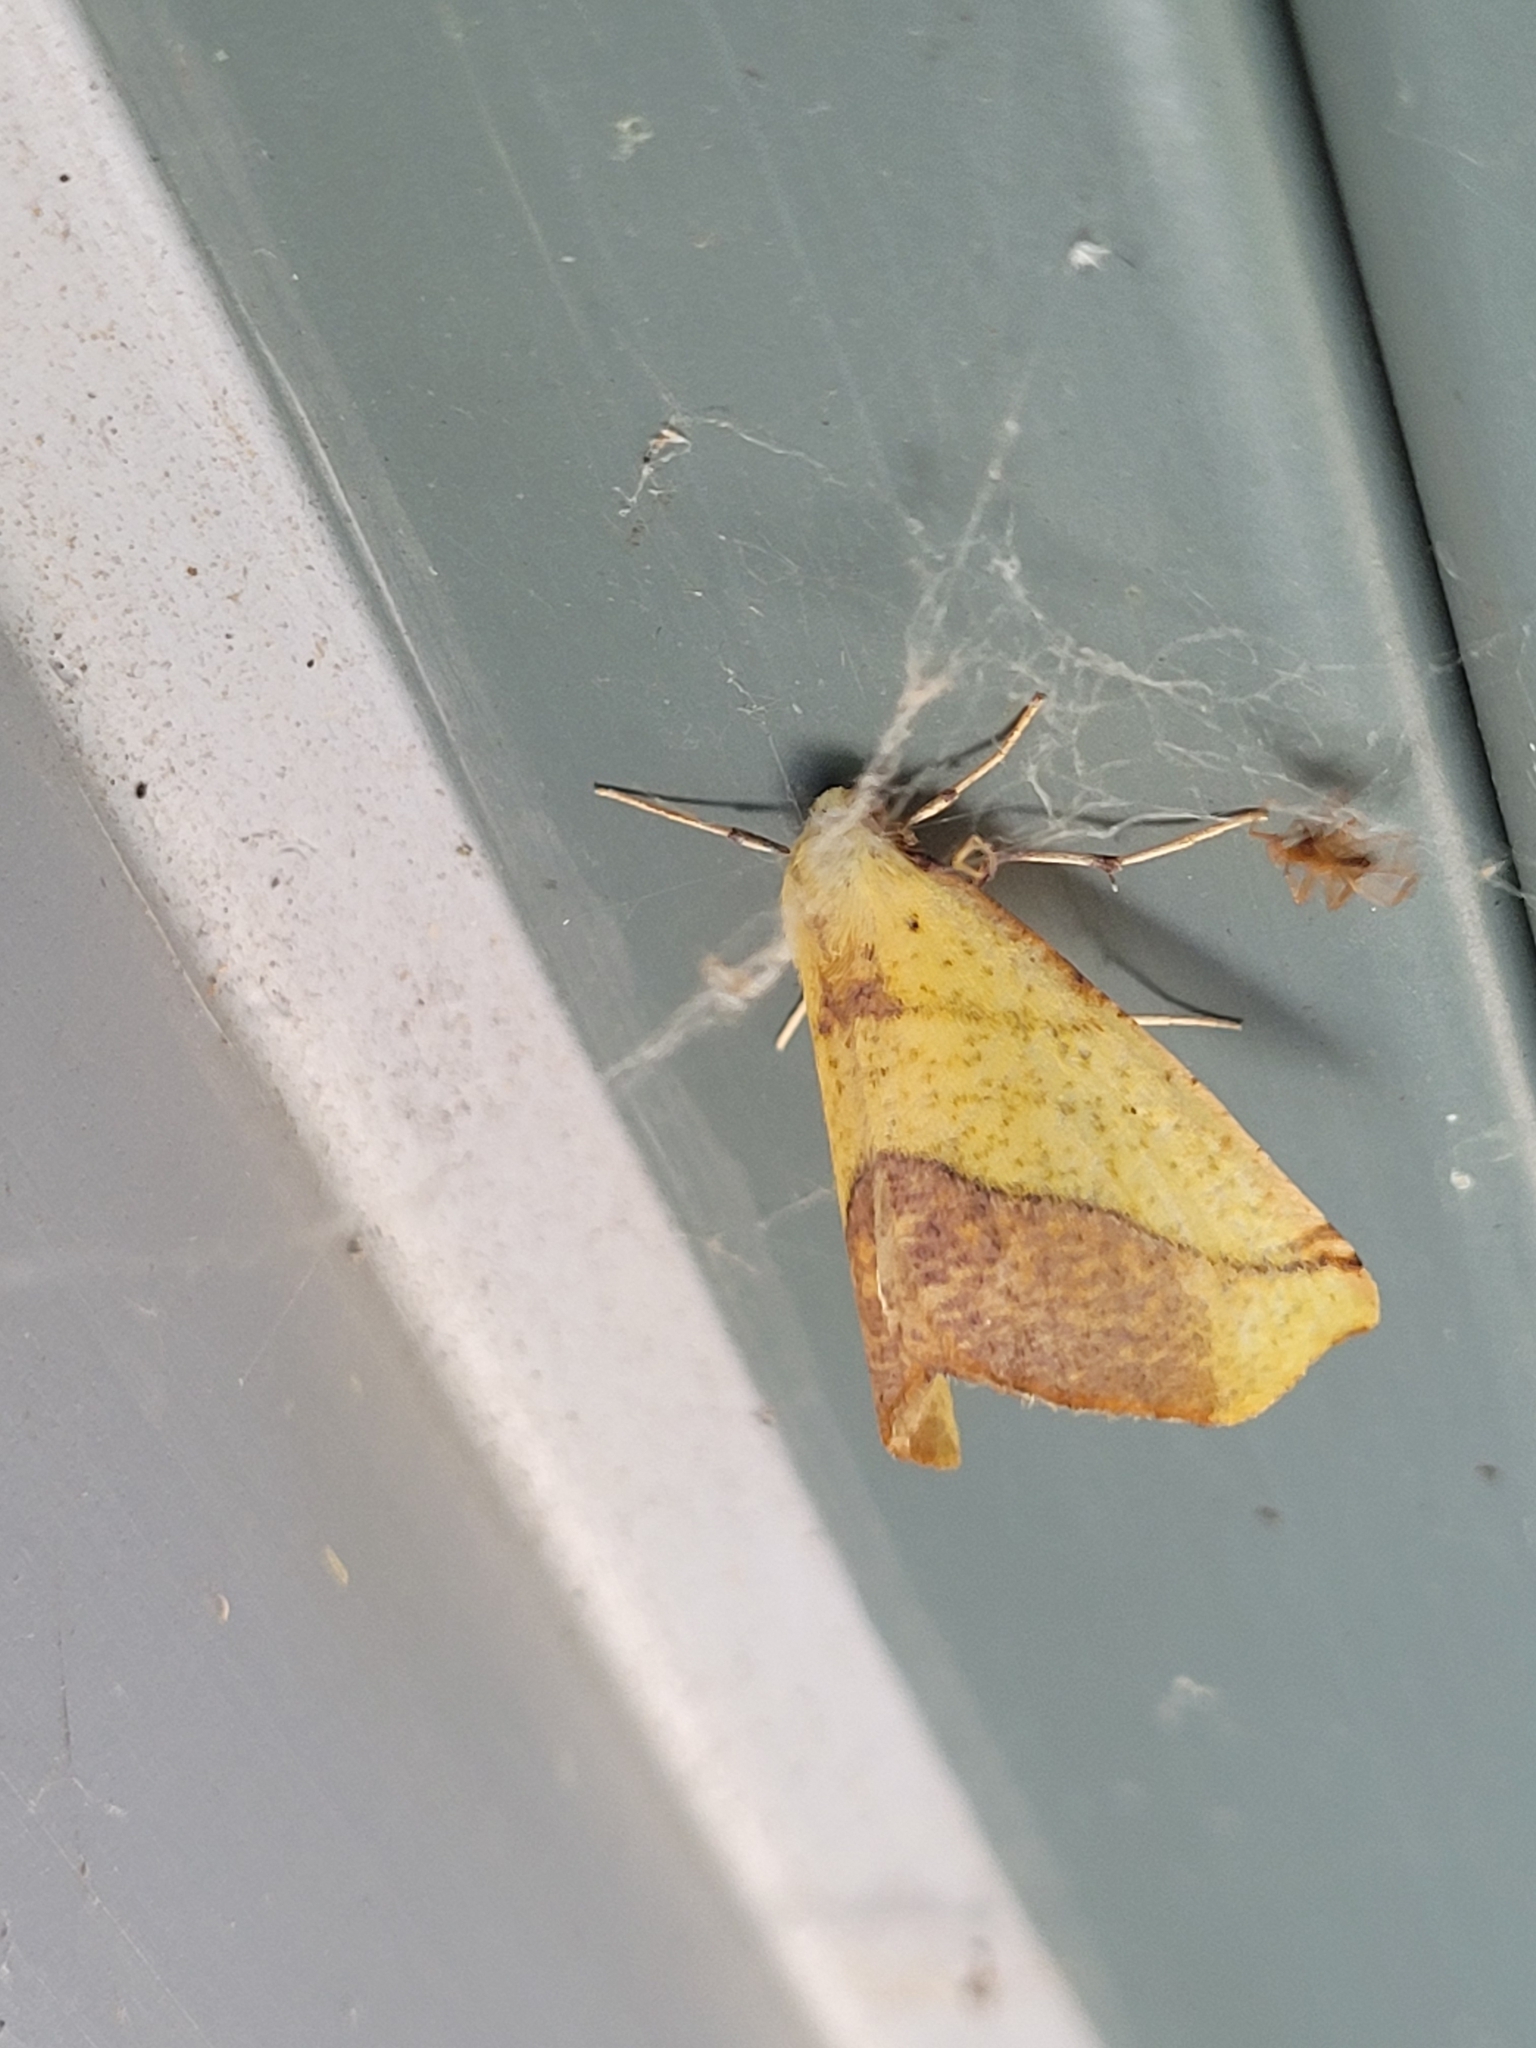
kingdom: Animalia
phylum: Arthropoda
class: Insecta
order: Lepidoptera
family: Geometridae
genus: Sicya
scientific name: Sicya macularia
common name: Sharp-lined yellow
